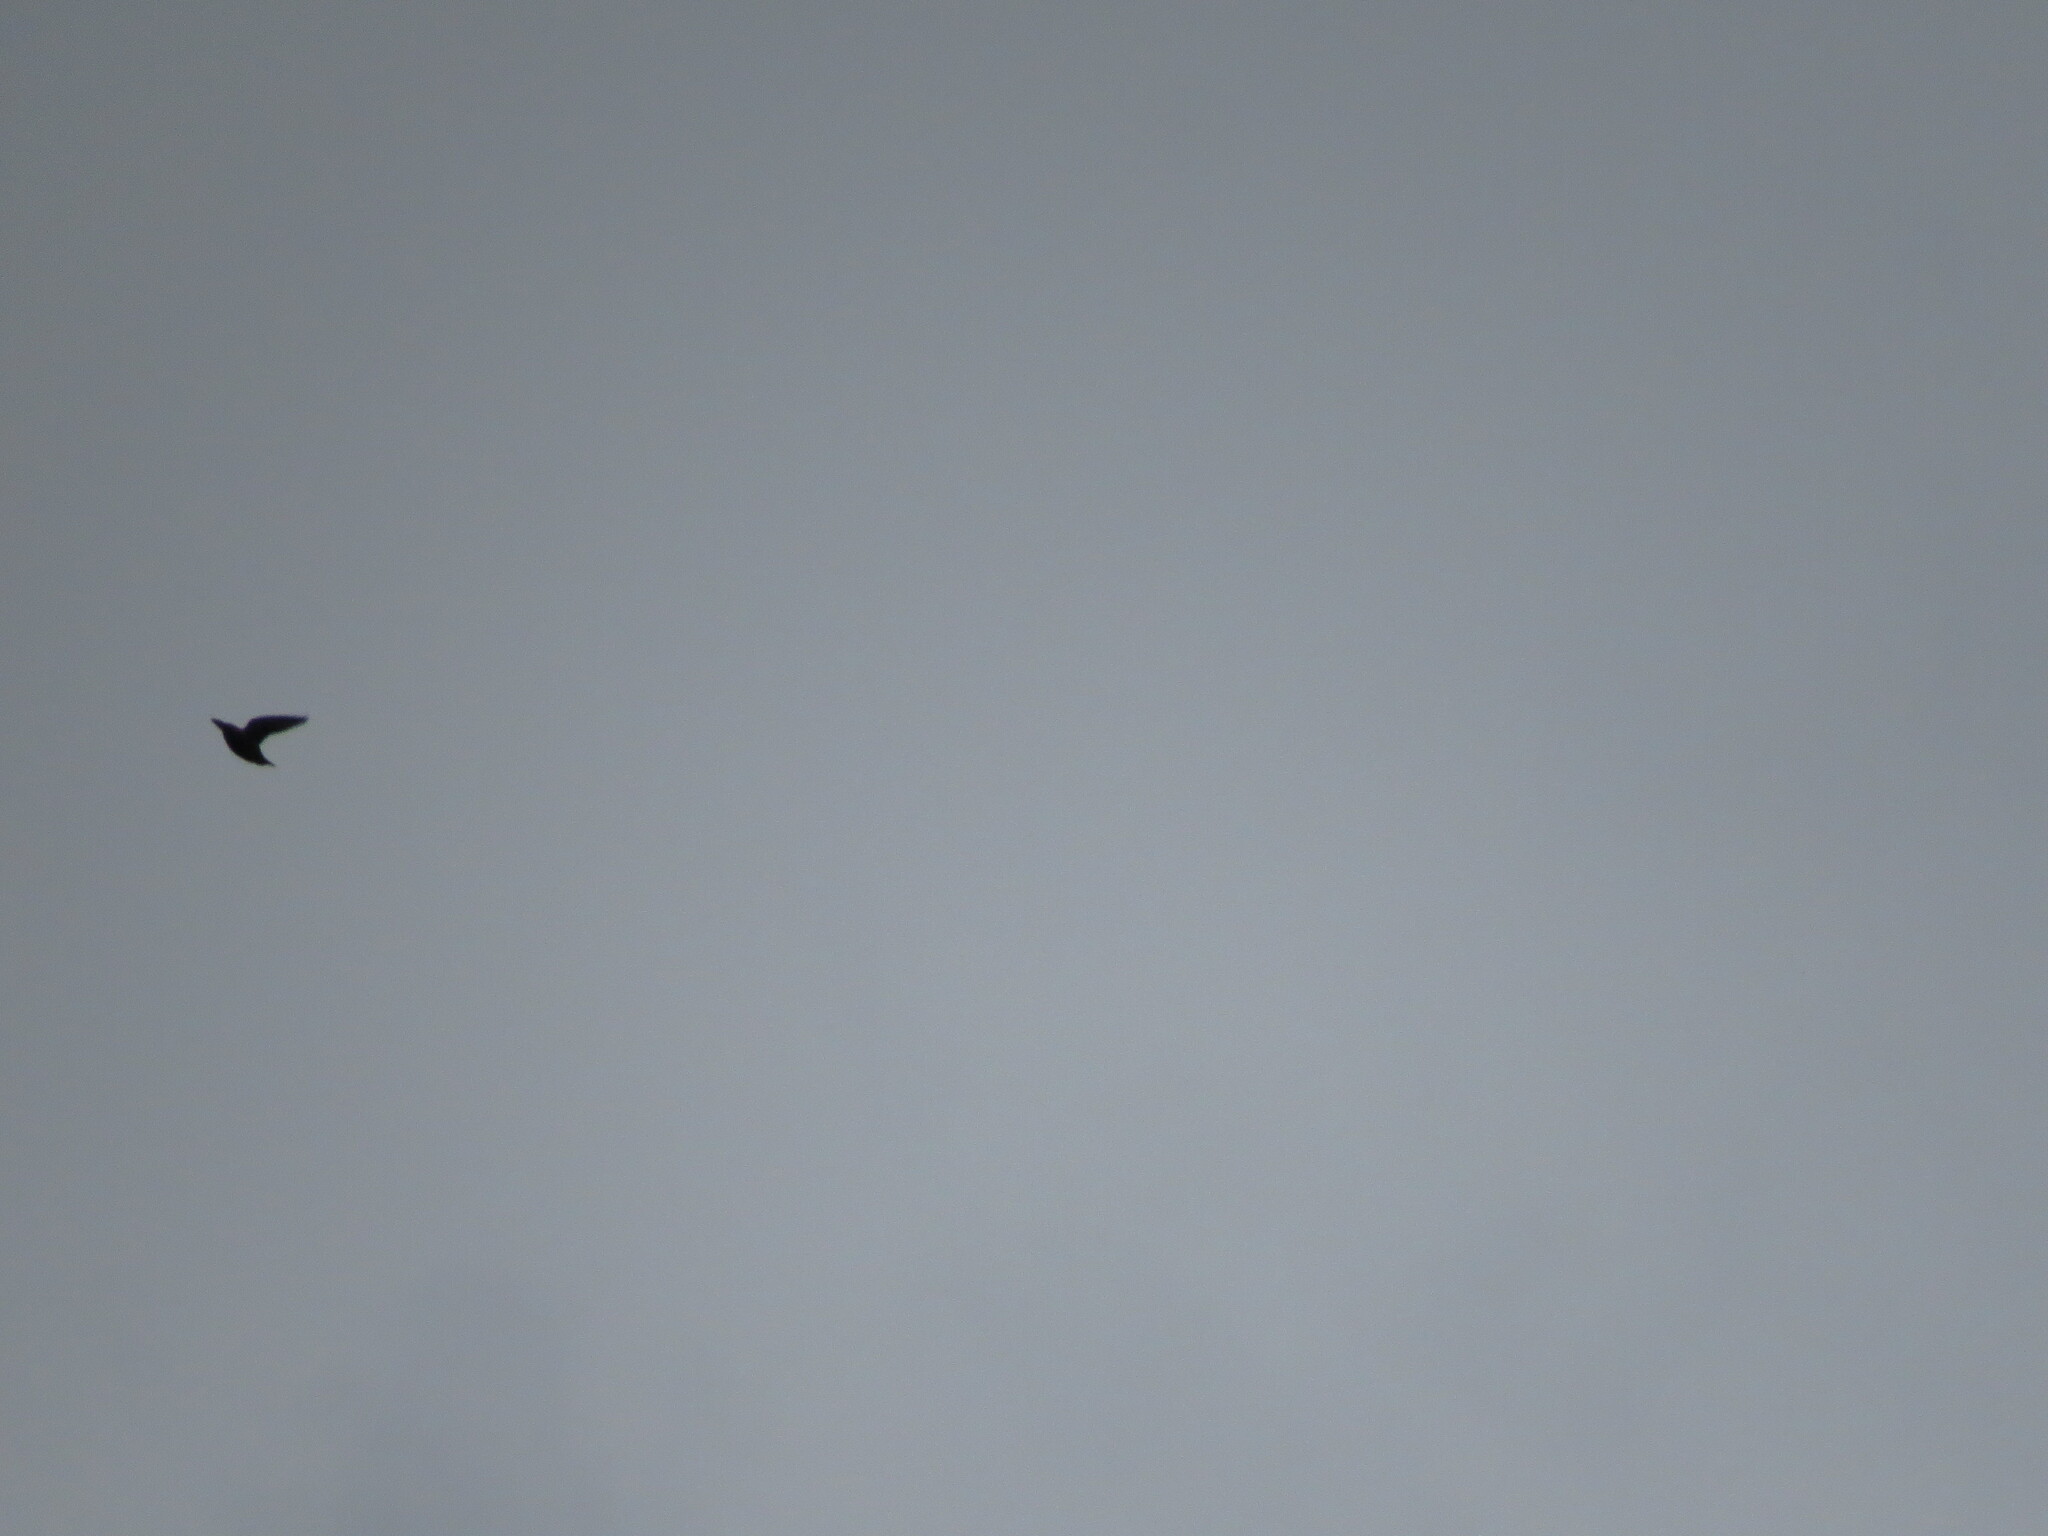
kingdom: Animalia
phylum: Chordata
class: Aves
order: Passeriformes
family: Sturnidae
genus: Sturnus
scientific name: Sturnus vulgaris
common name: Common starling
